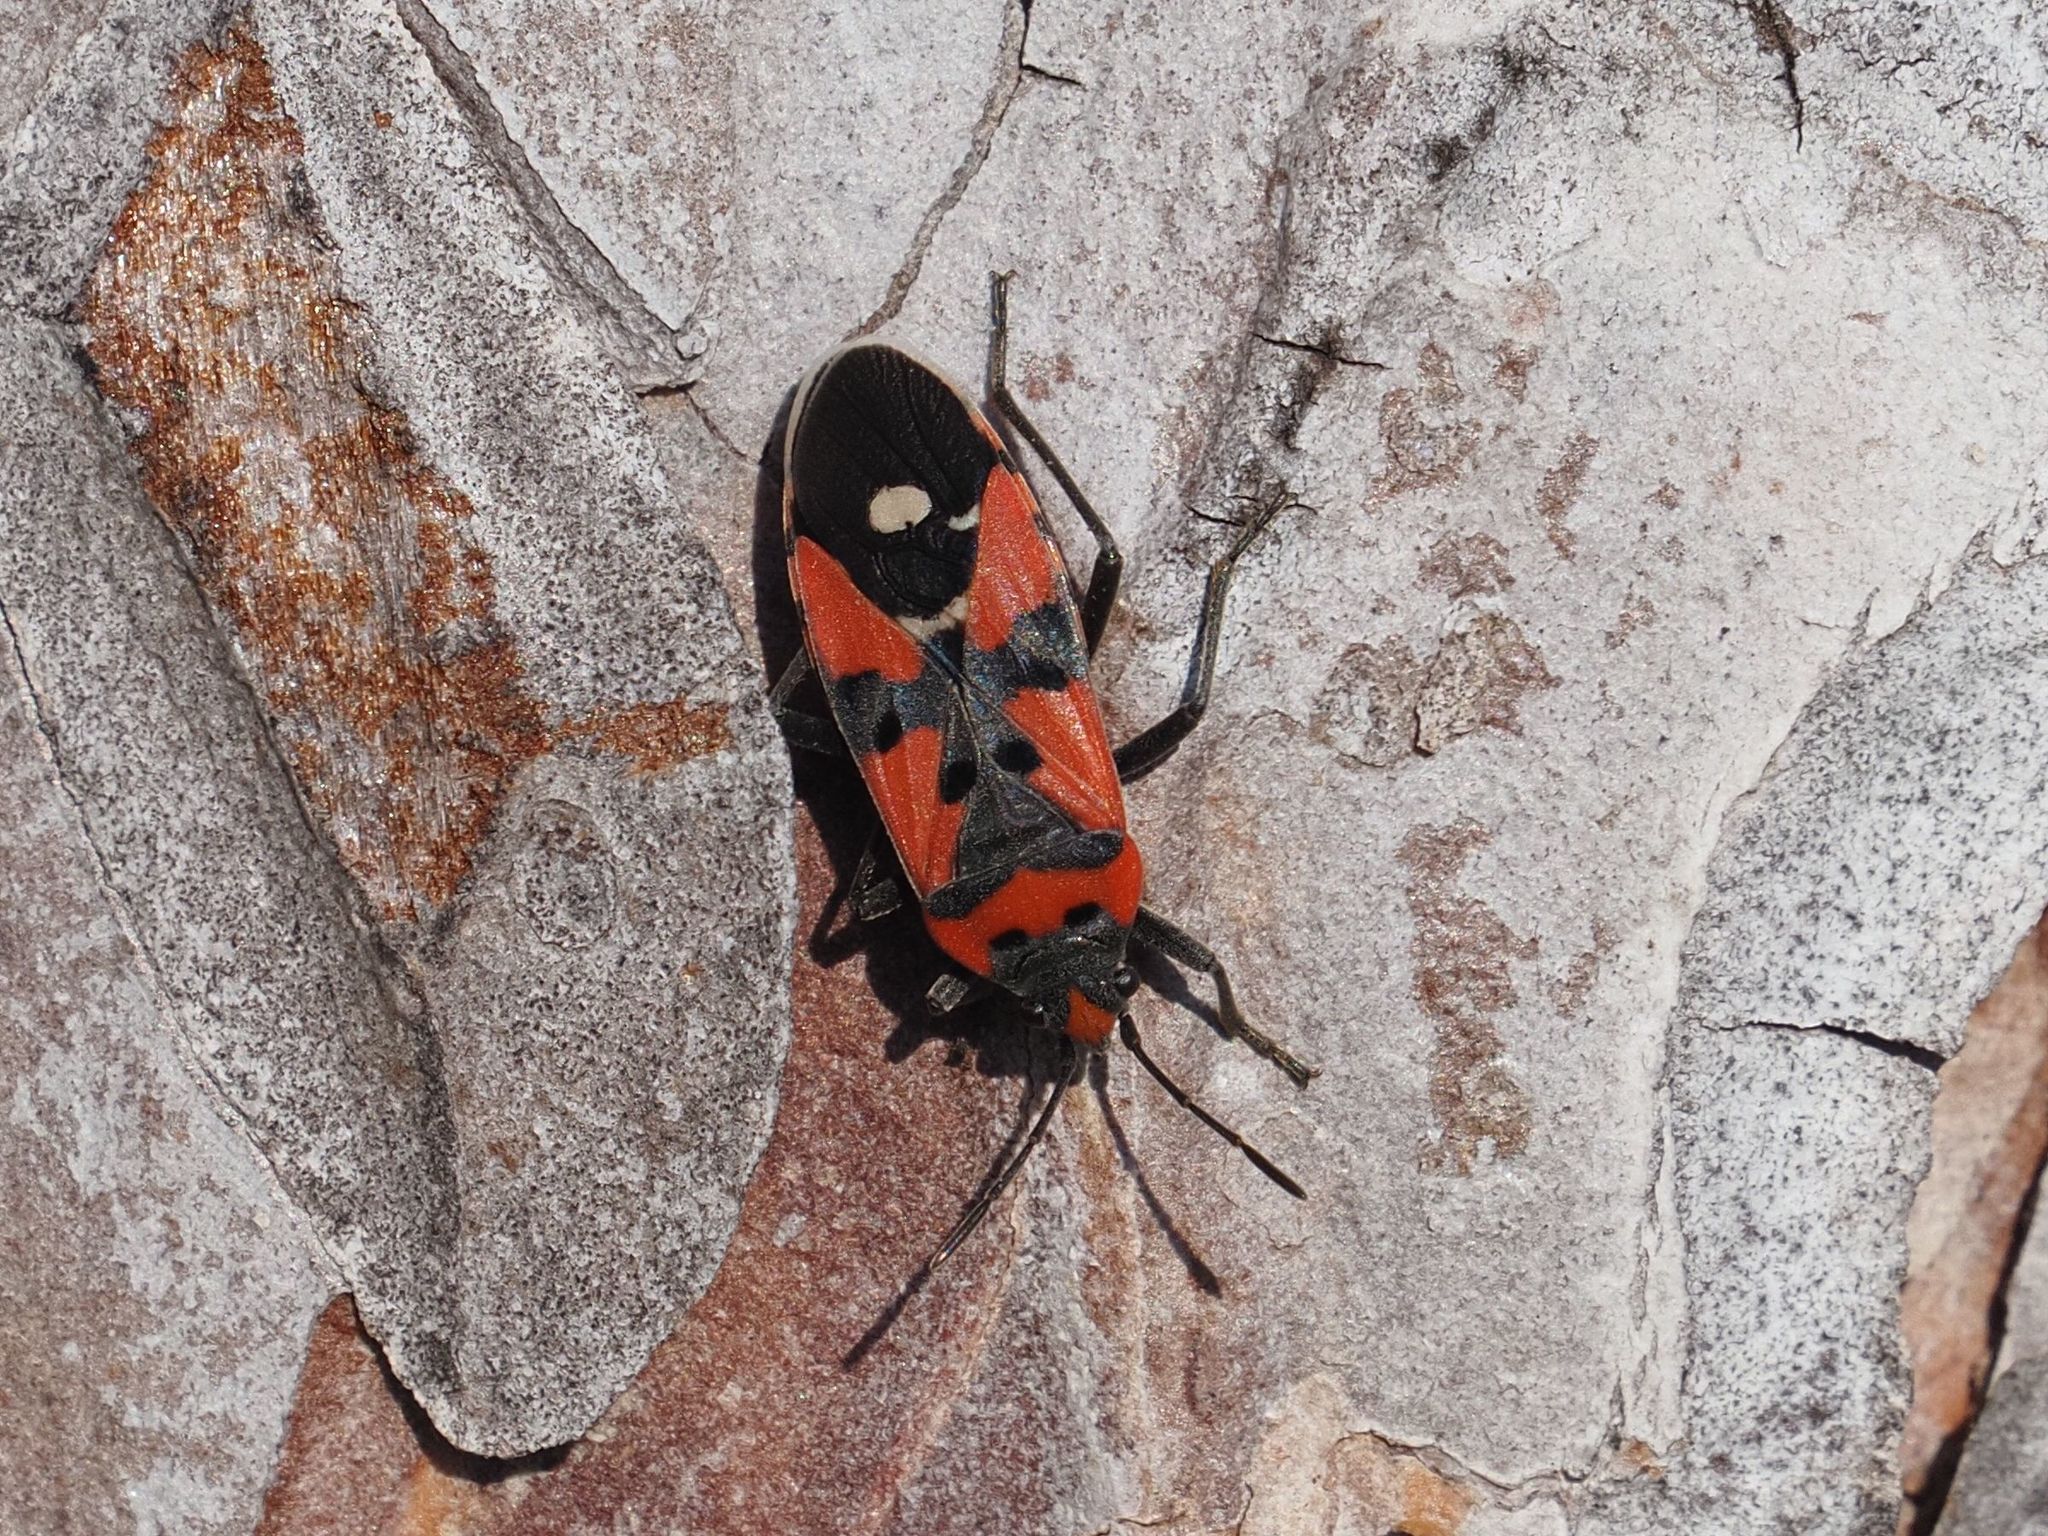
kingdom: Animalia
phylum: Arthropoda
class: Insecta
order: Hemiptera
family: Lygaeidae
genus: Lygaeus
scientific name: Lygaeus equestris
